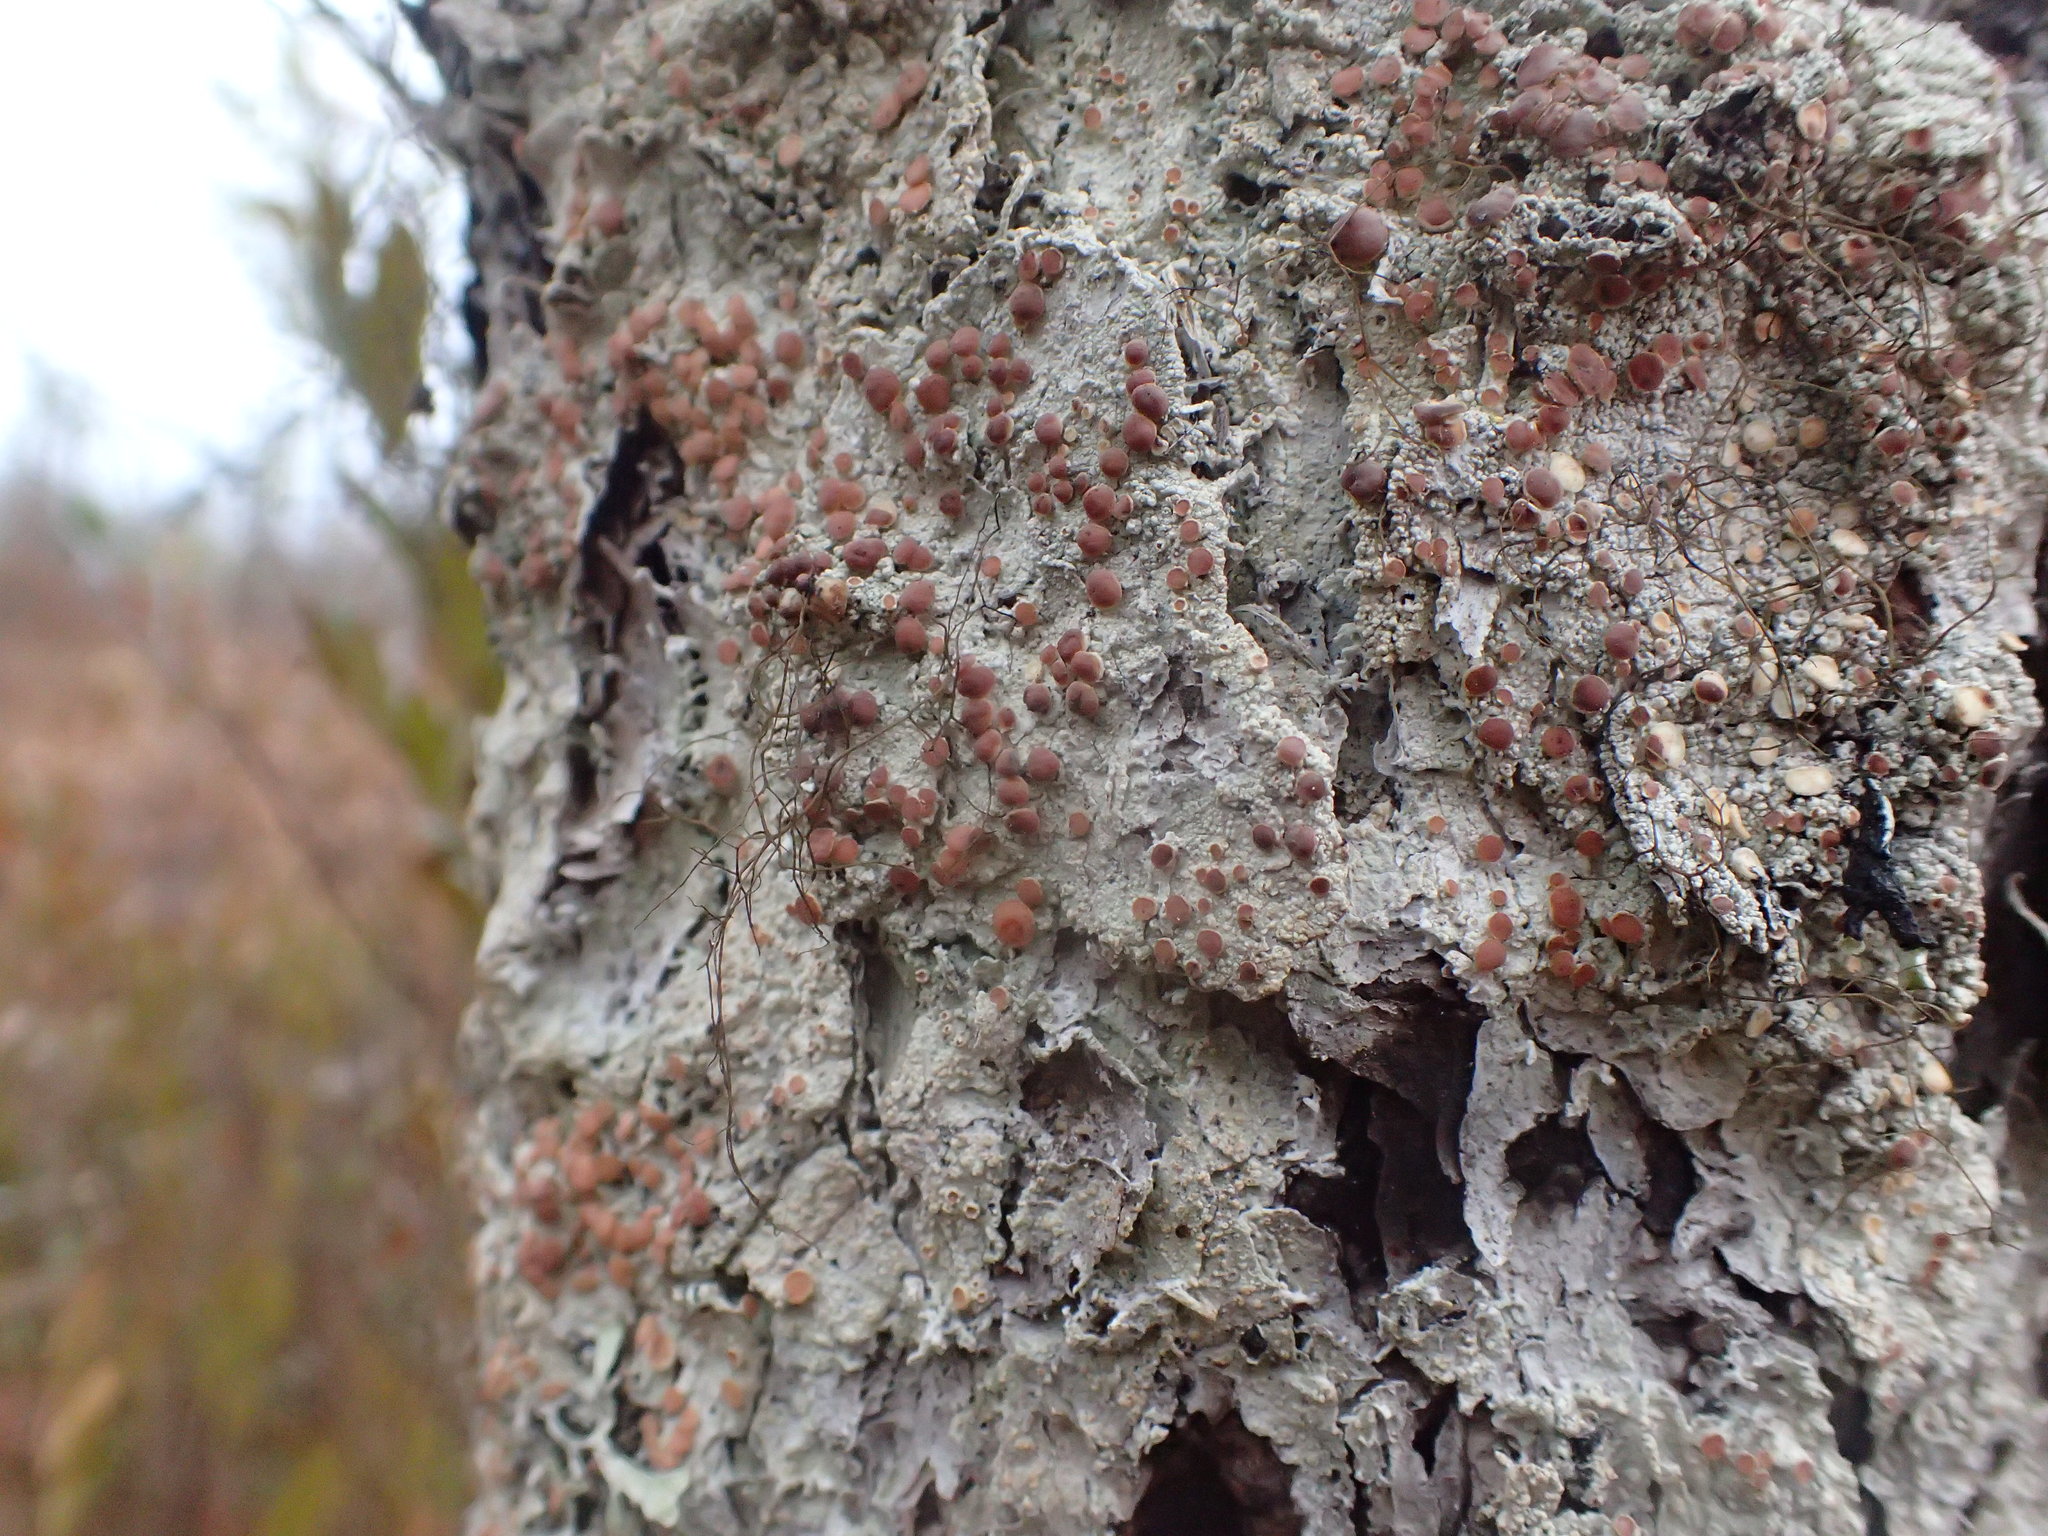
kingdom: Fungi
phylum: Ascomycota
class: Lecanoromycetes
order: Lecanorales
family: Sarrameanaceae
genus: Loxospora
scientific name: Loxospora ochrophaea
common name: Eastern ragged-rim lichen
